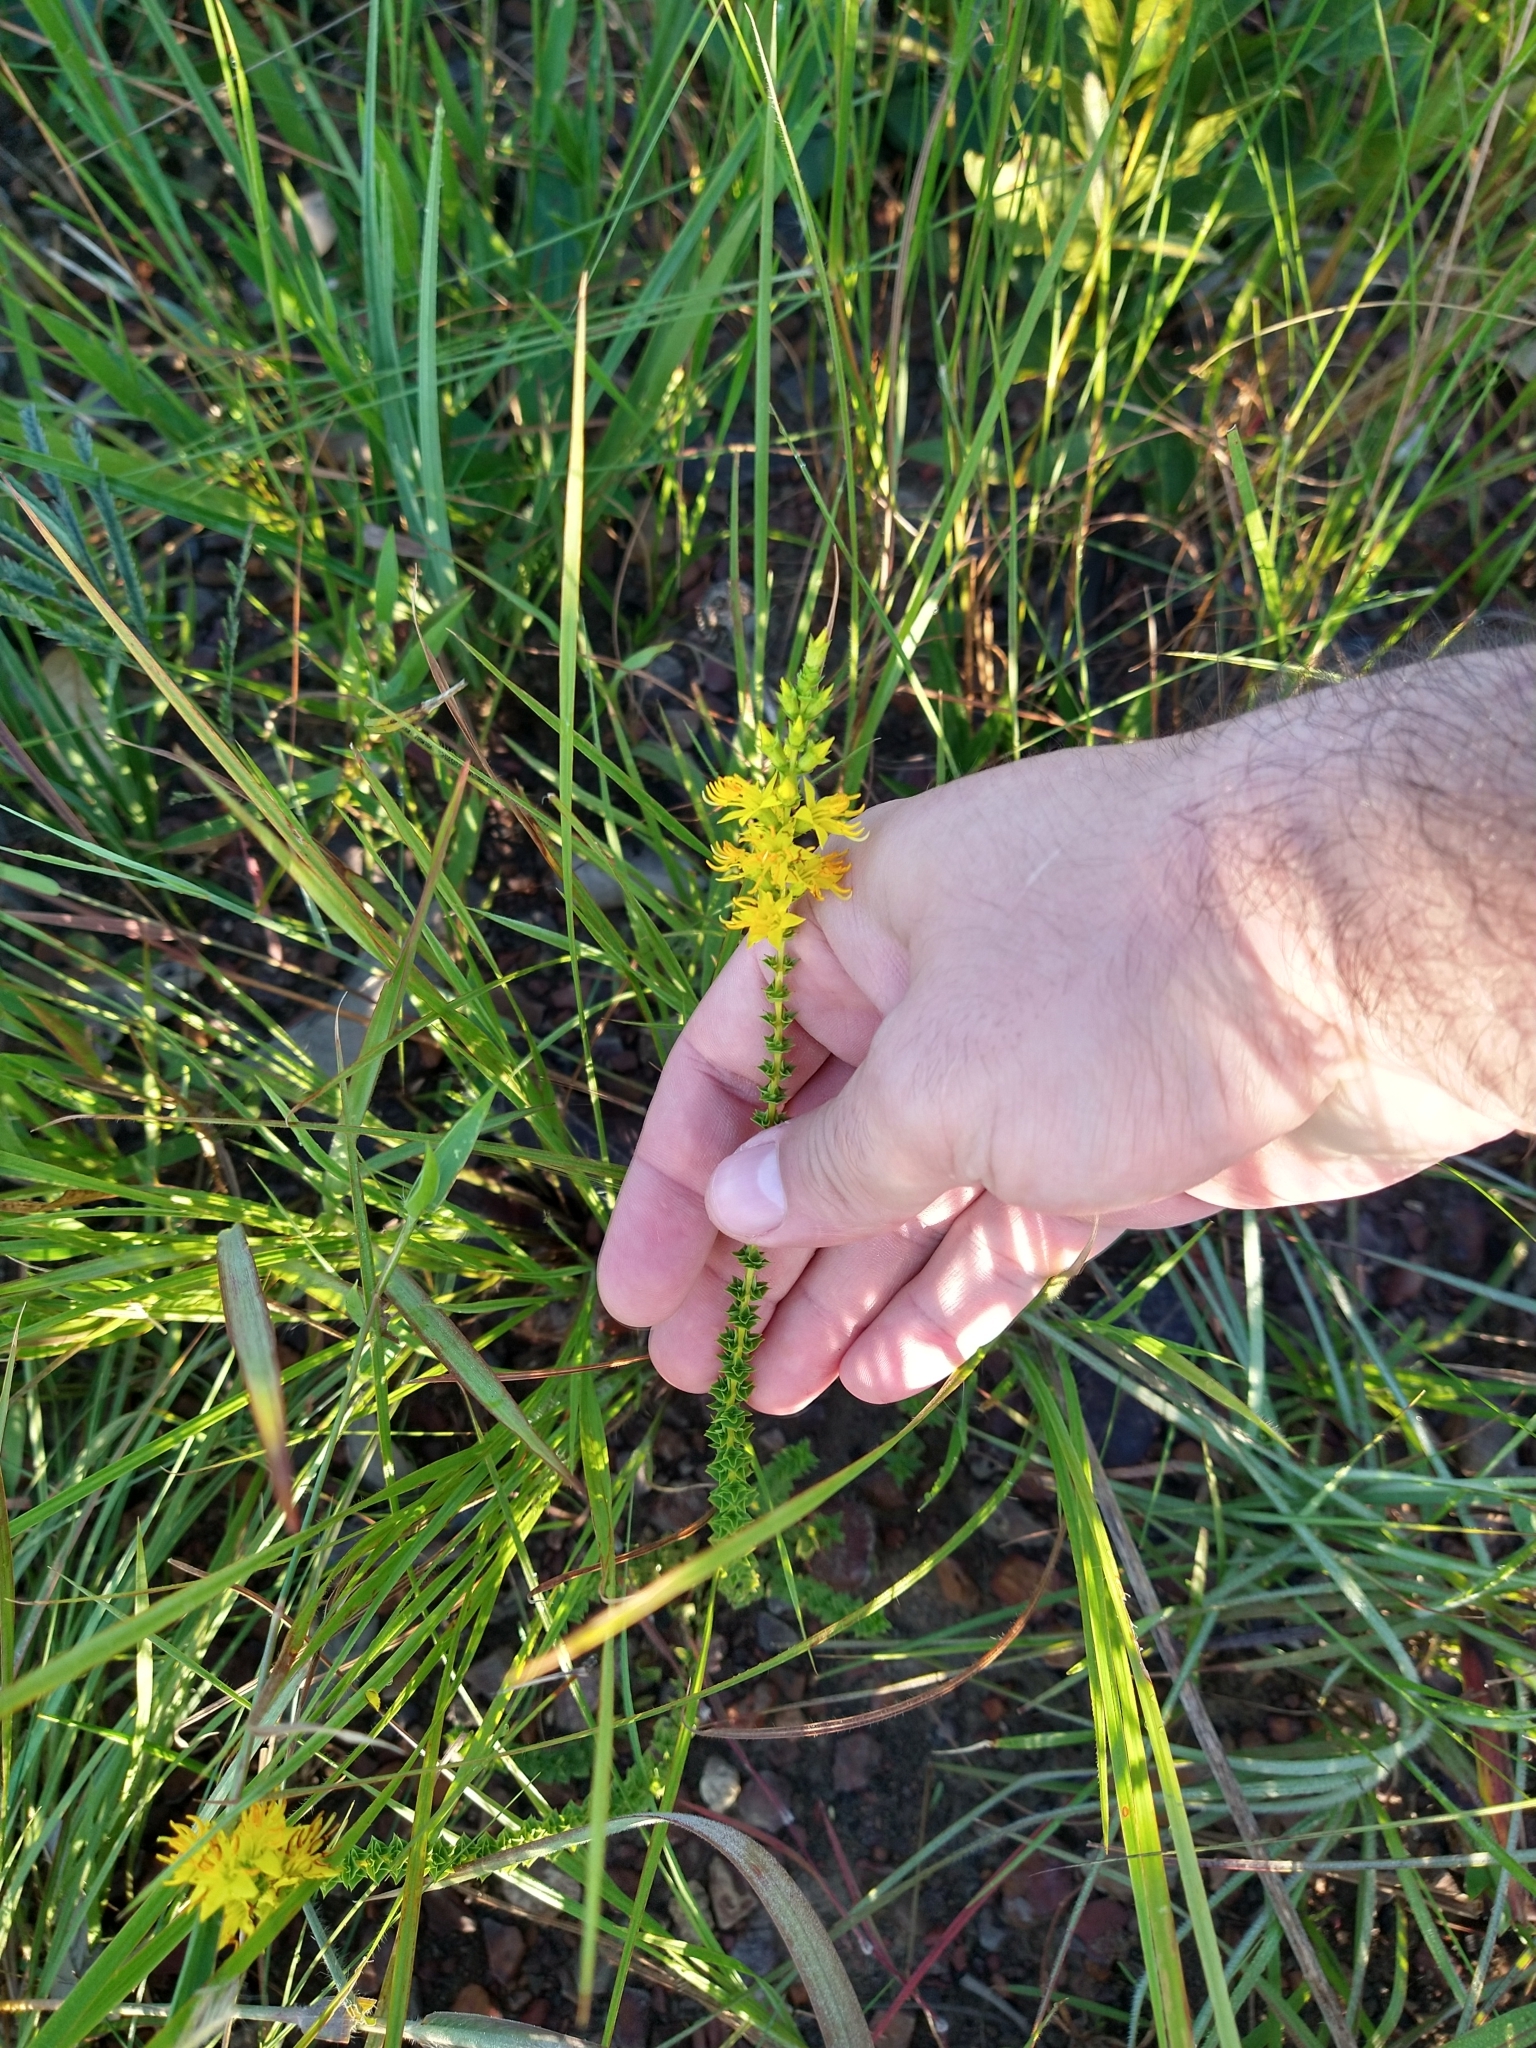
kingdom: Plantae
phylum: Tracheophyta
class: Magnoliopsida
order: Myrtales
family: Melastomataceae
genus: Cambessedesia
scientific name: Cambessedesia espora
